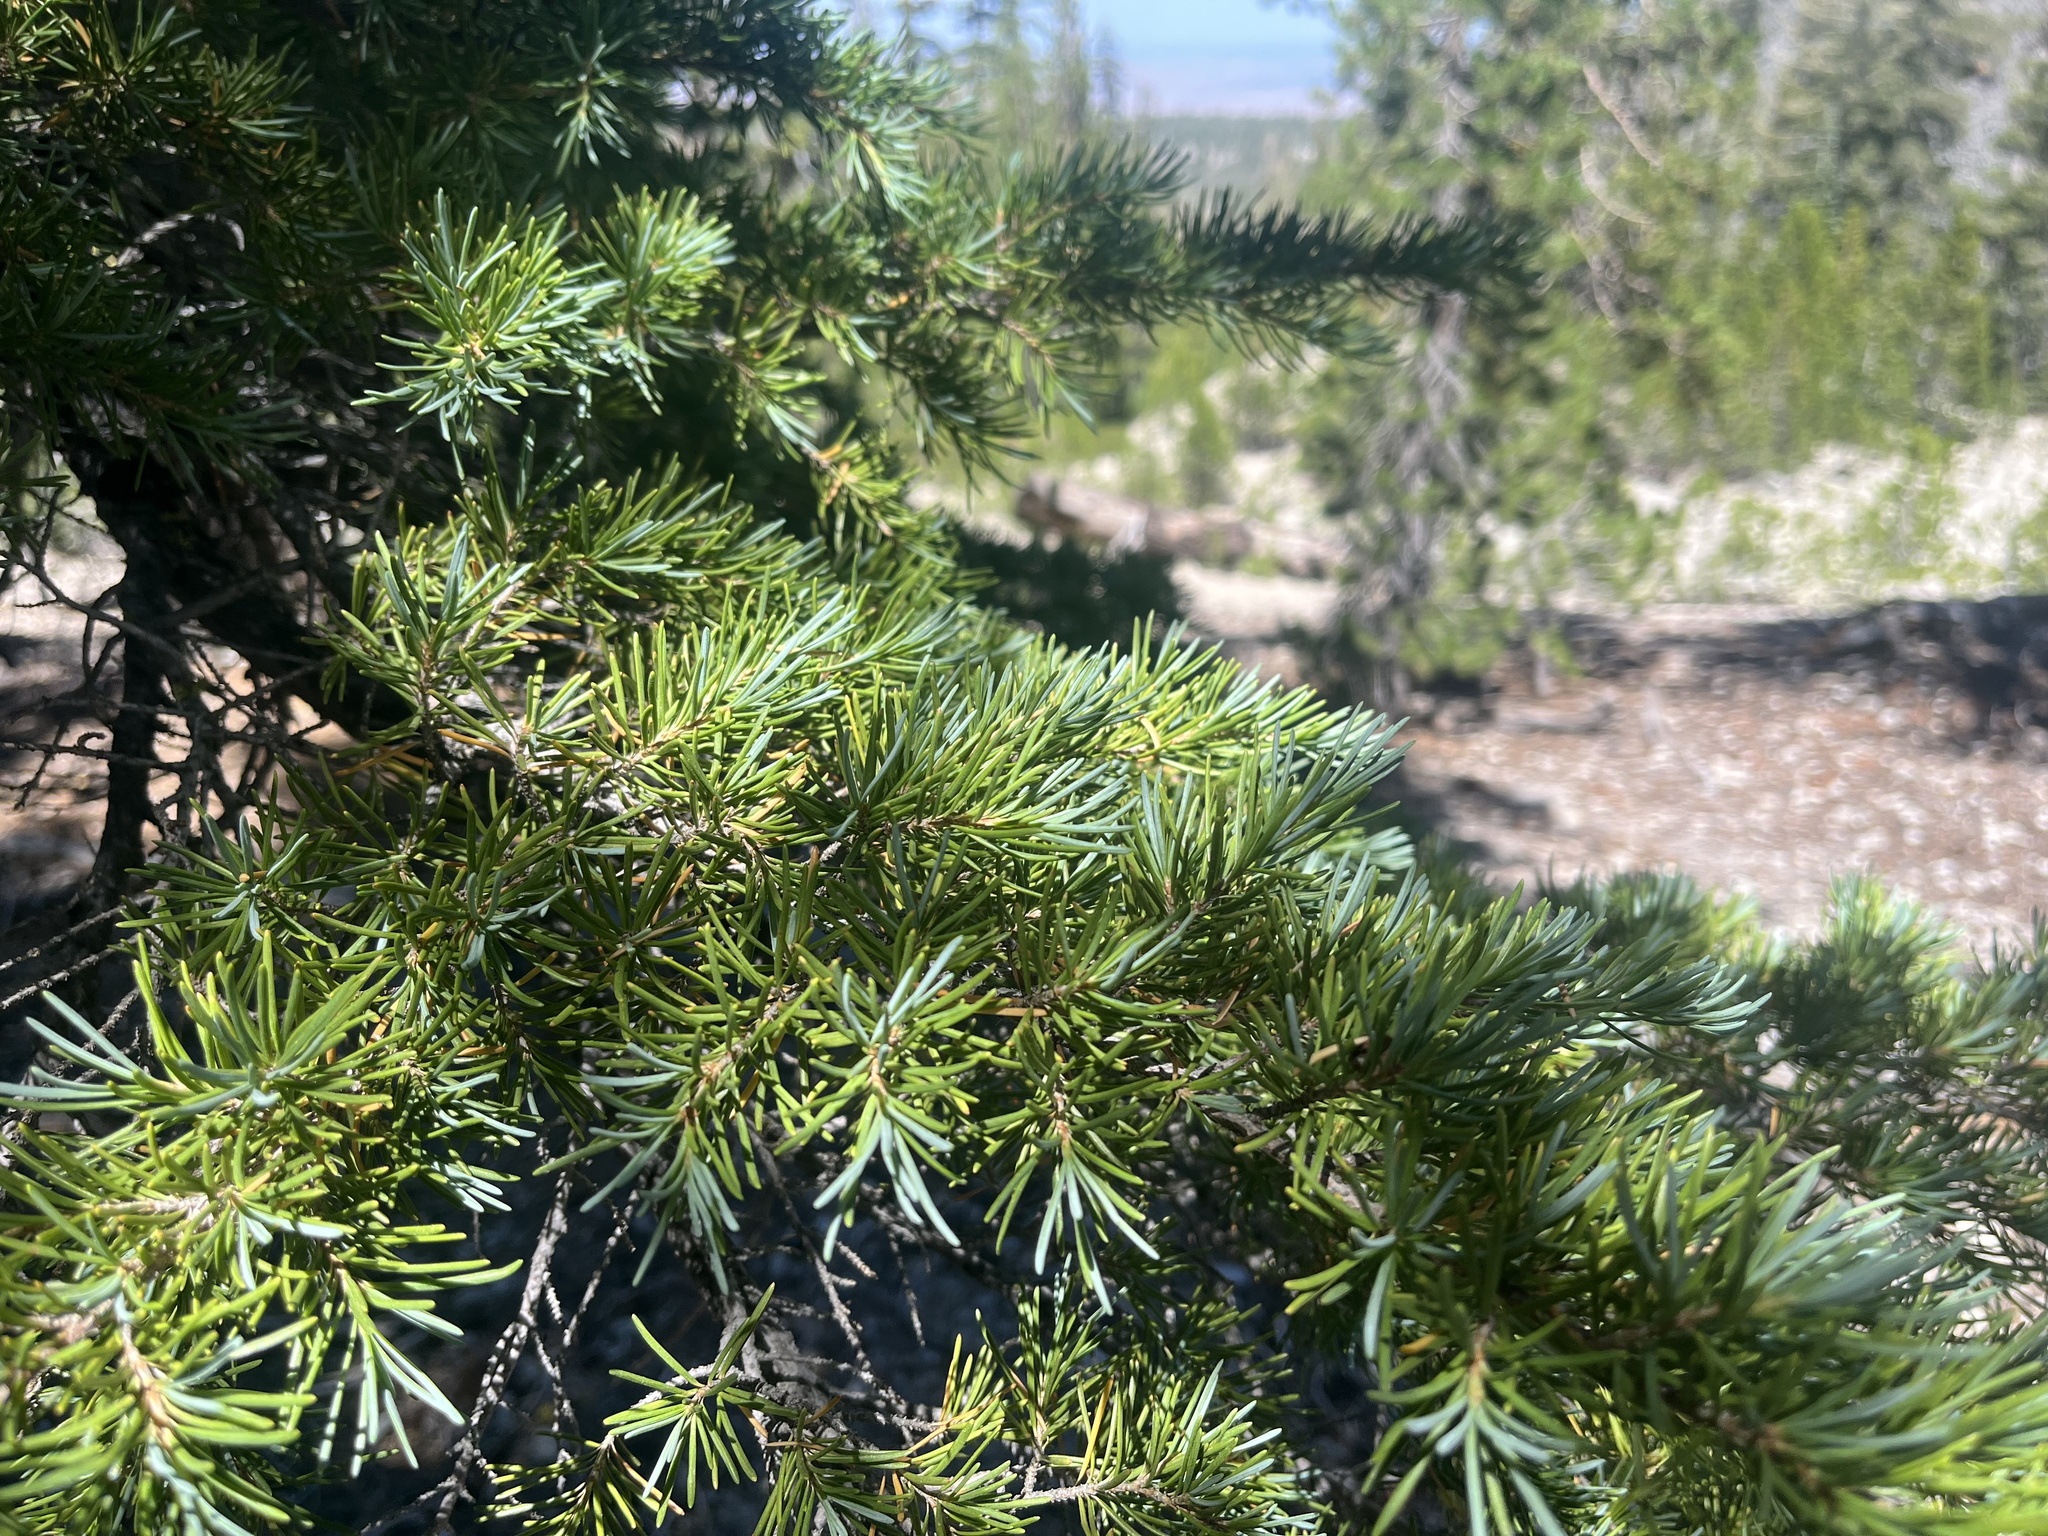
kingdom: Plantae
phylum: Tracheophyta
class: Pinopsida
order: Pinales
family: Pinaceae
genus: Tsuga
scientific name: Tsuga mertensiana
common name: Mountain hemlock
